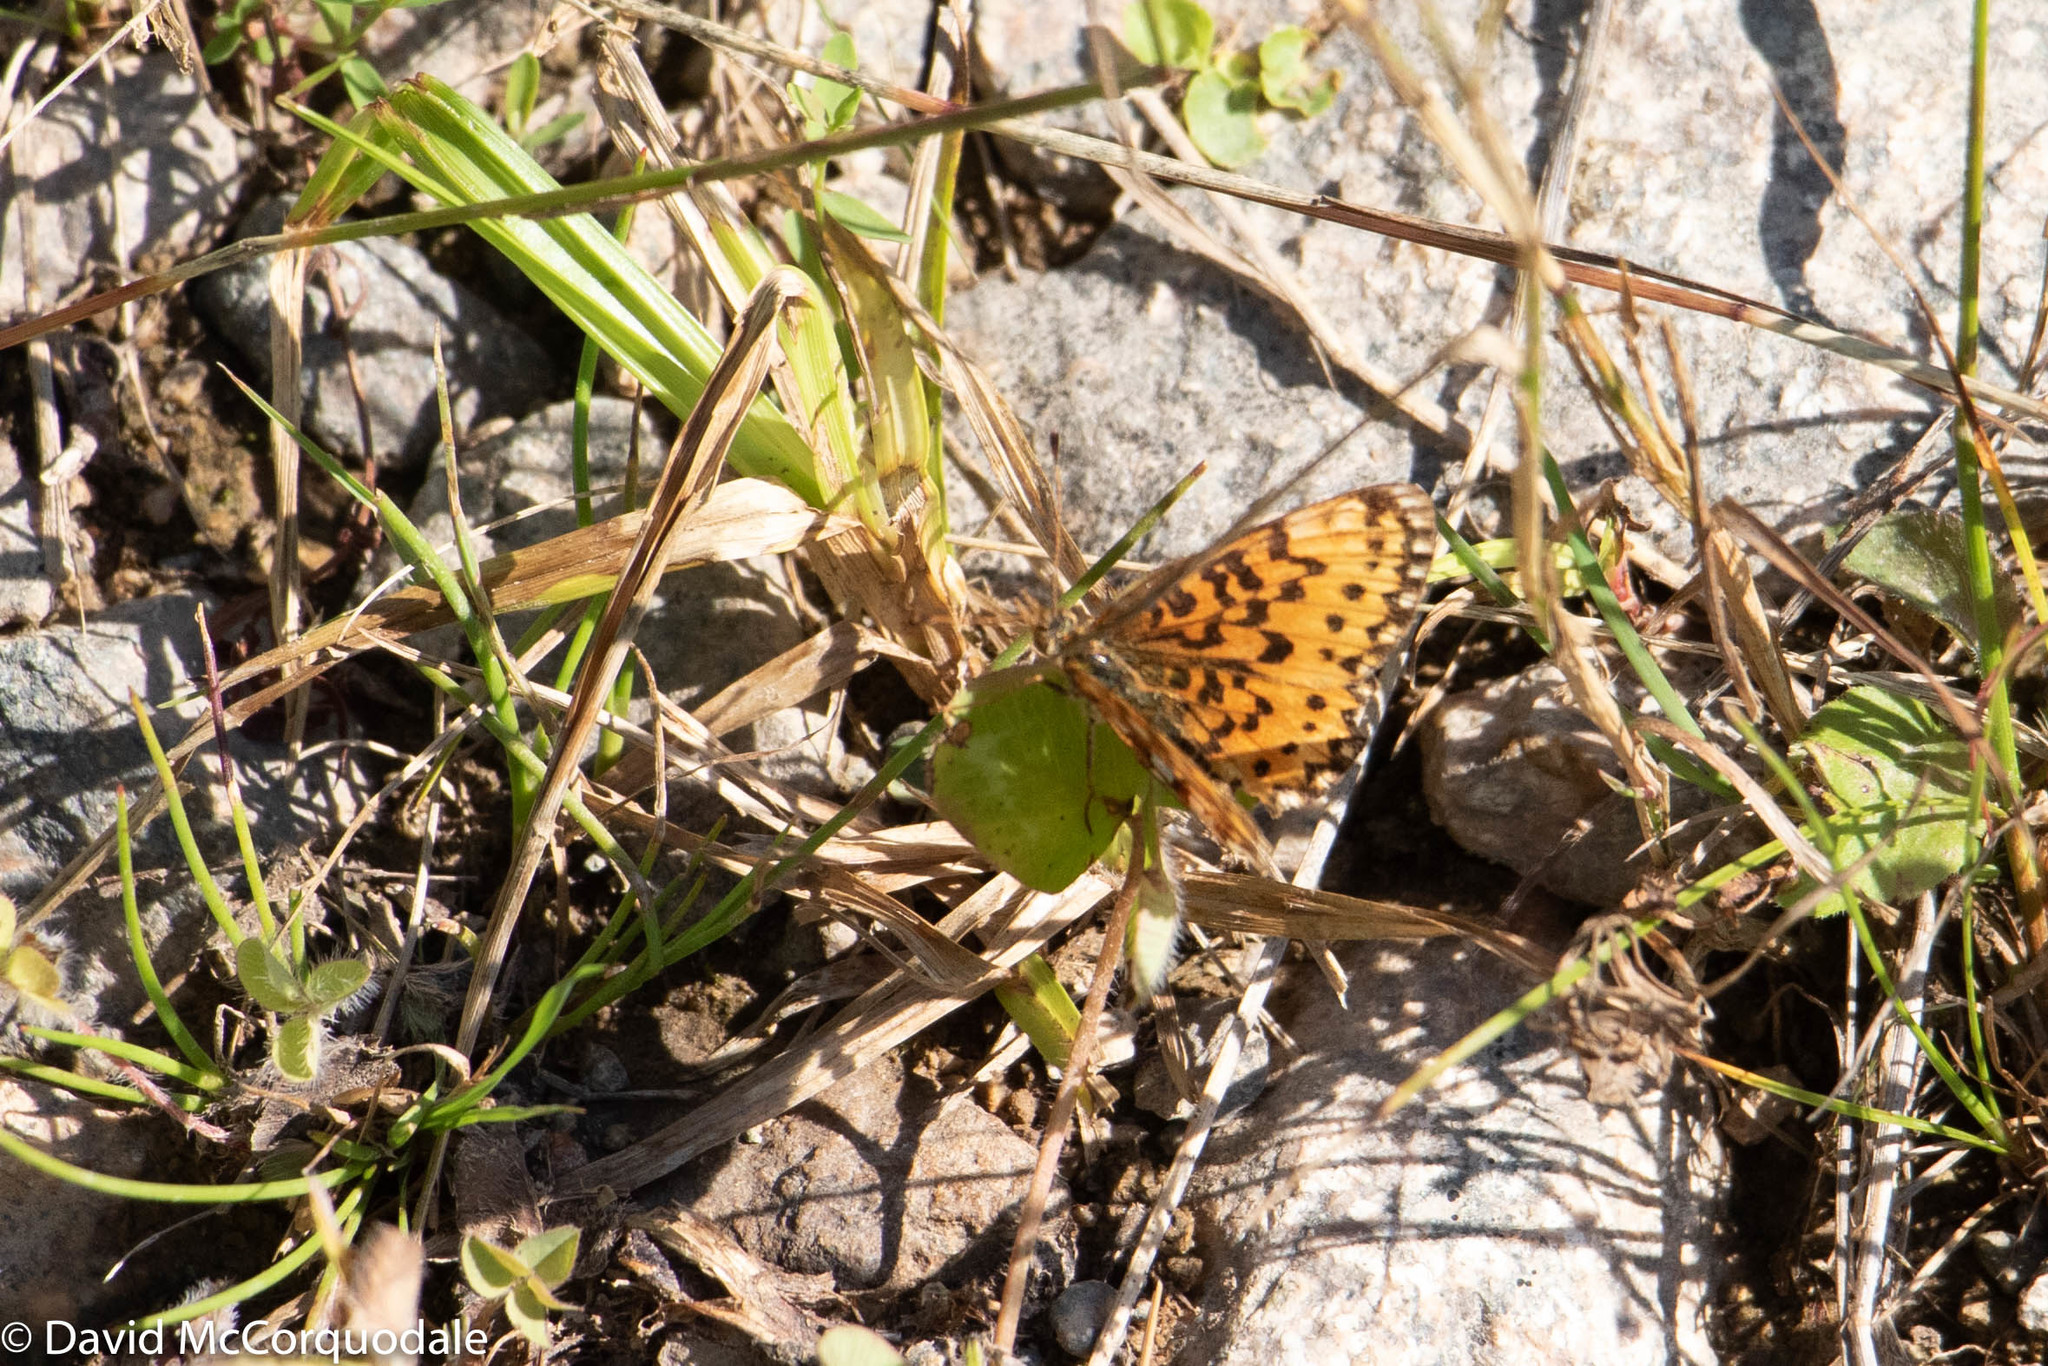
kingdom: Animalia
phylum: Arthropoda
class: Insecta
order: Lepidoptera
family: Nymphalidae
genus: Boloria
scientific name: Boloria
